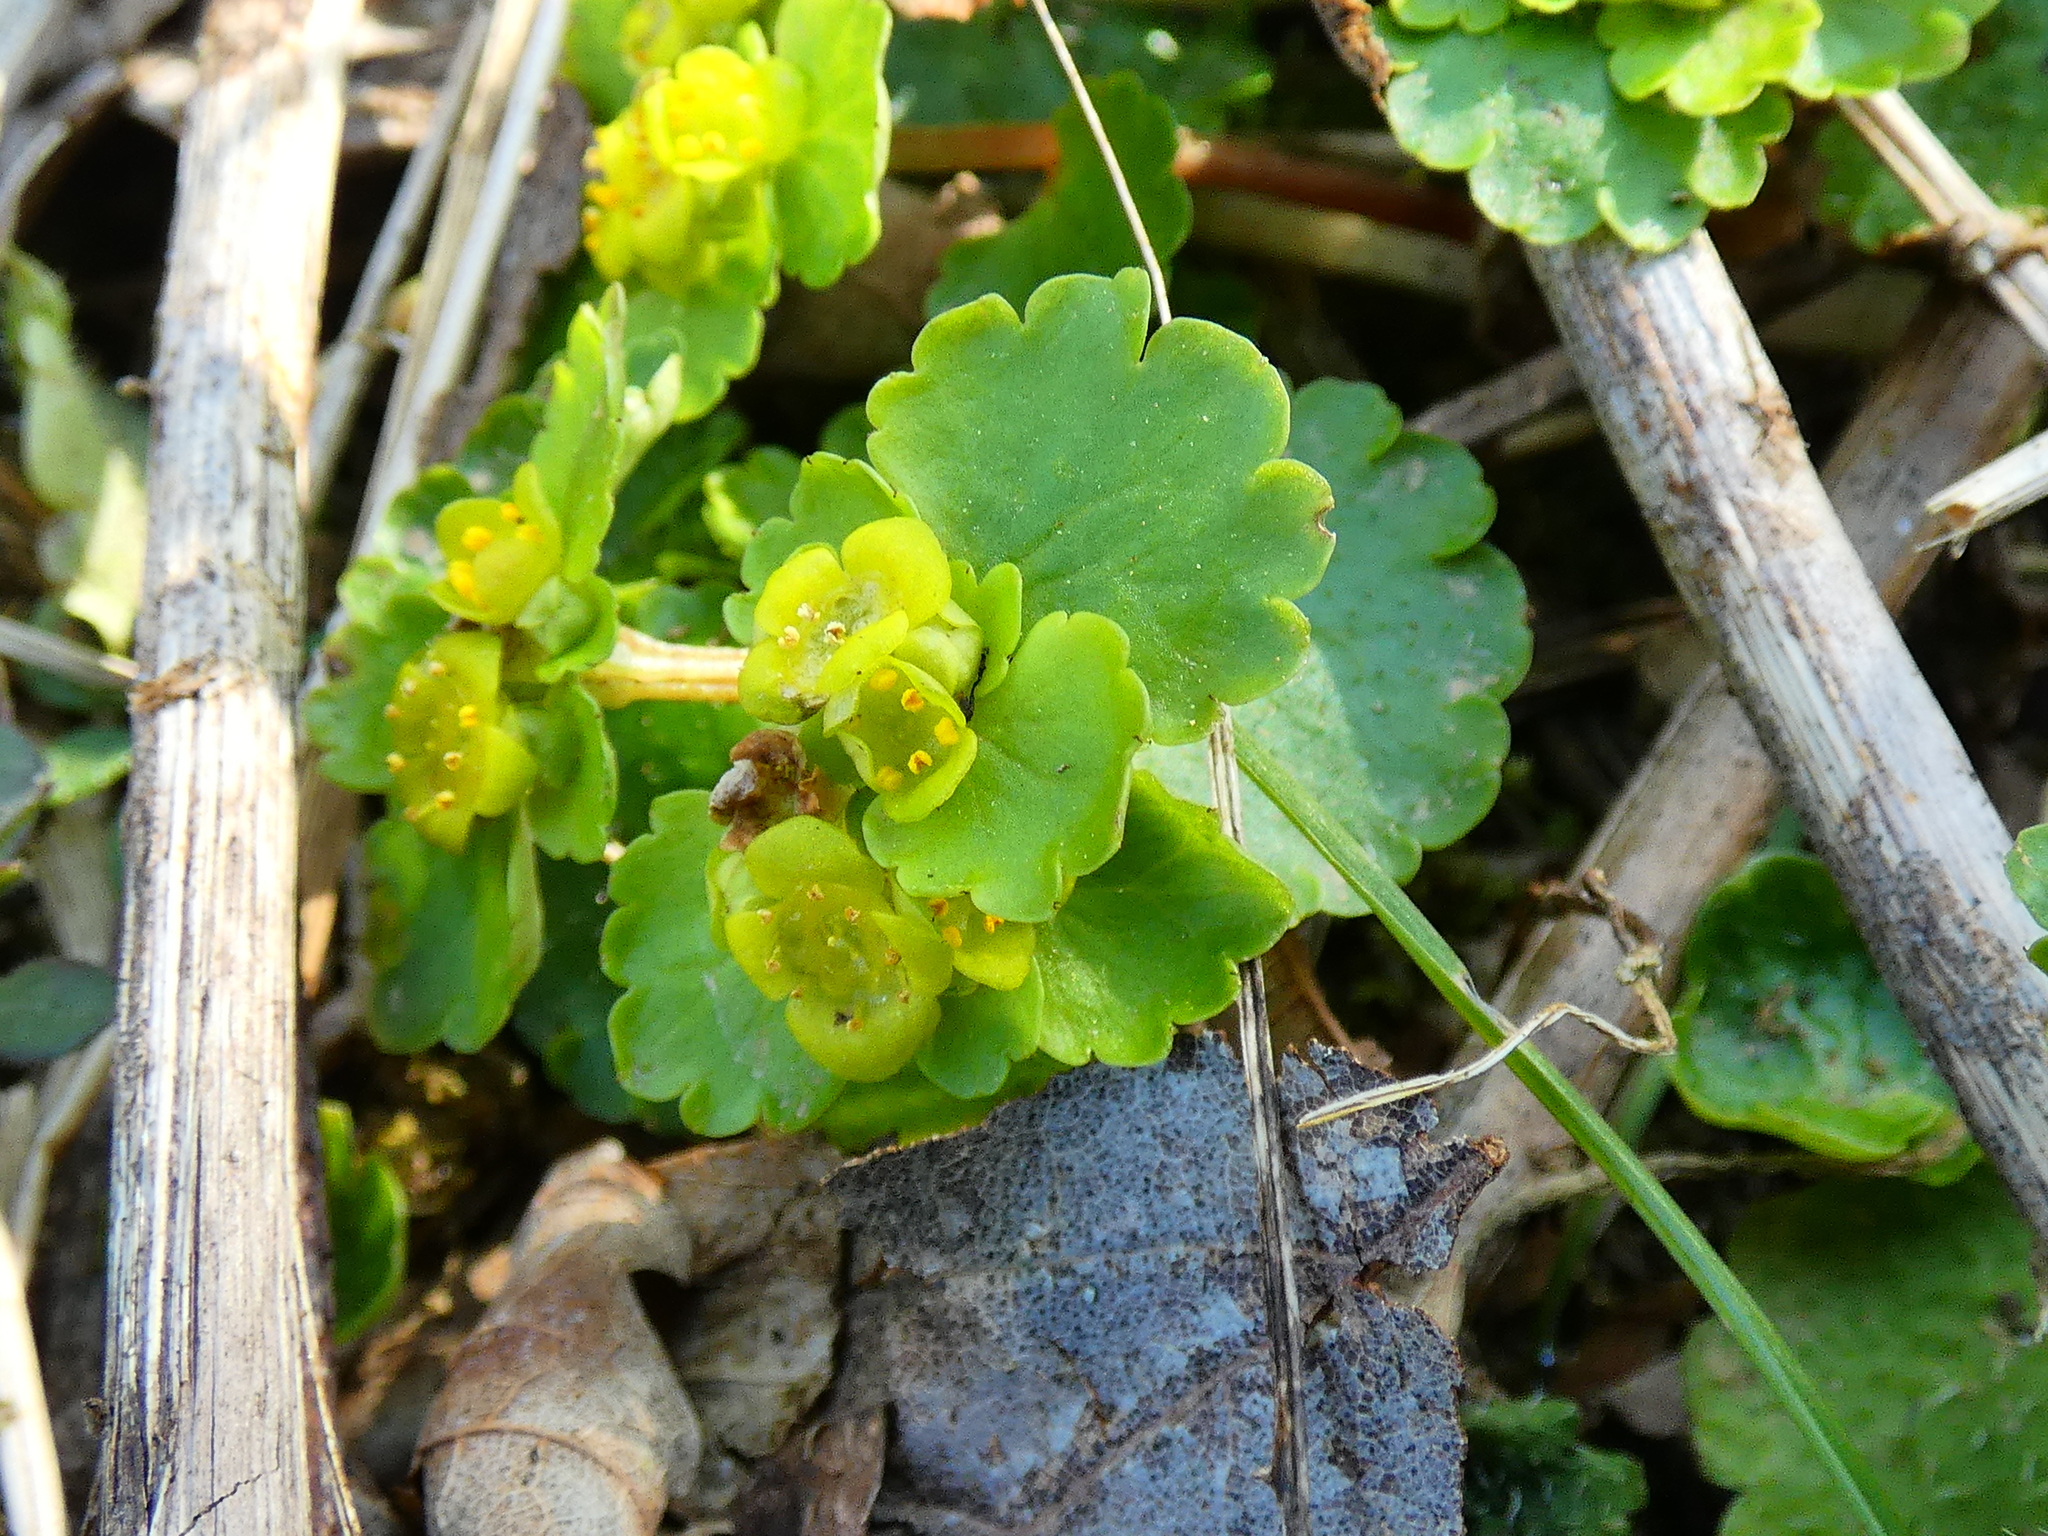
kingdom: Plantae
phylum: Tracheophyta
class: Magnoliopsida
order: Saxifragales
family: Saxifragaceae
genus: Chrysosplenium
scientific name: Chrysosplenium alternifolium
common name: Alternate-leaved golden-saxifrage
